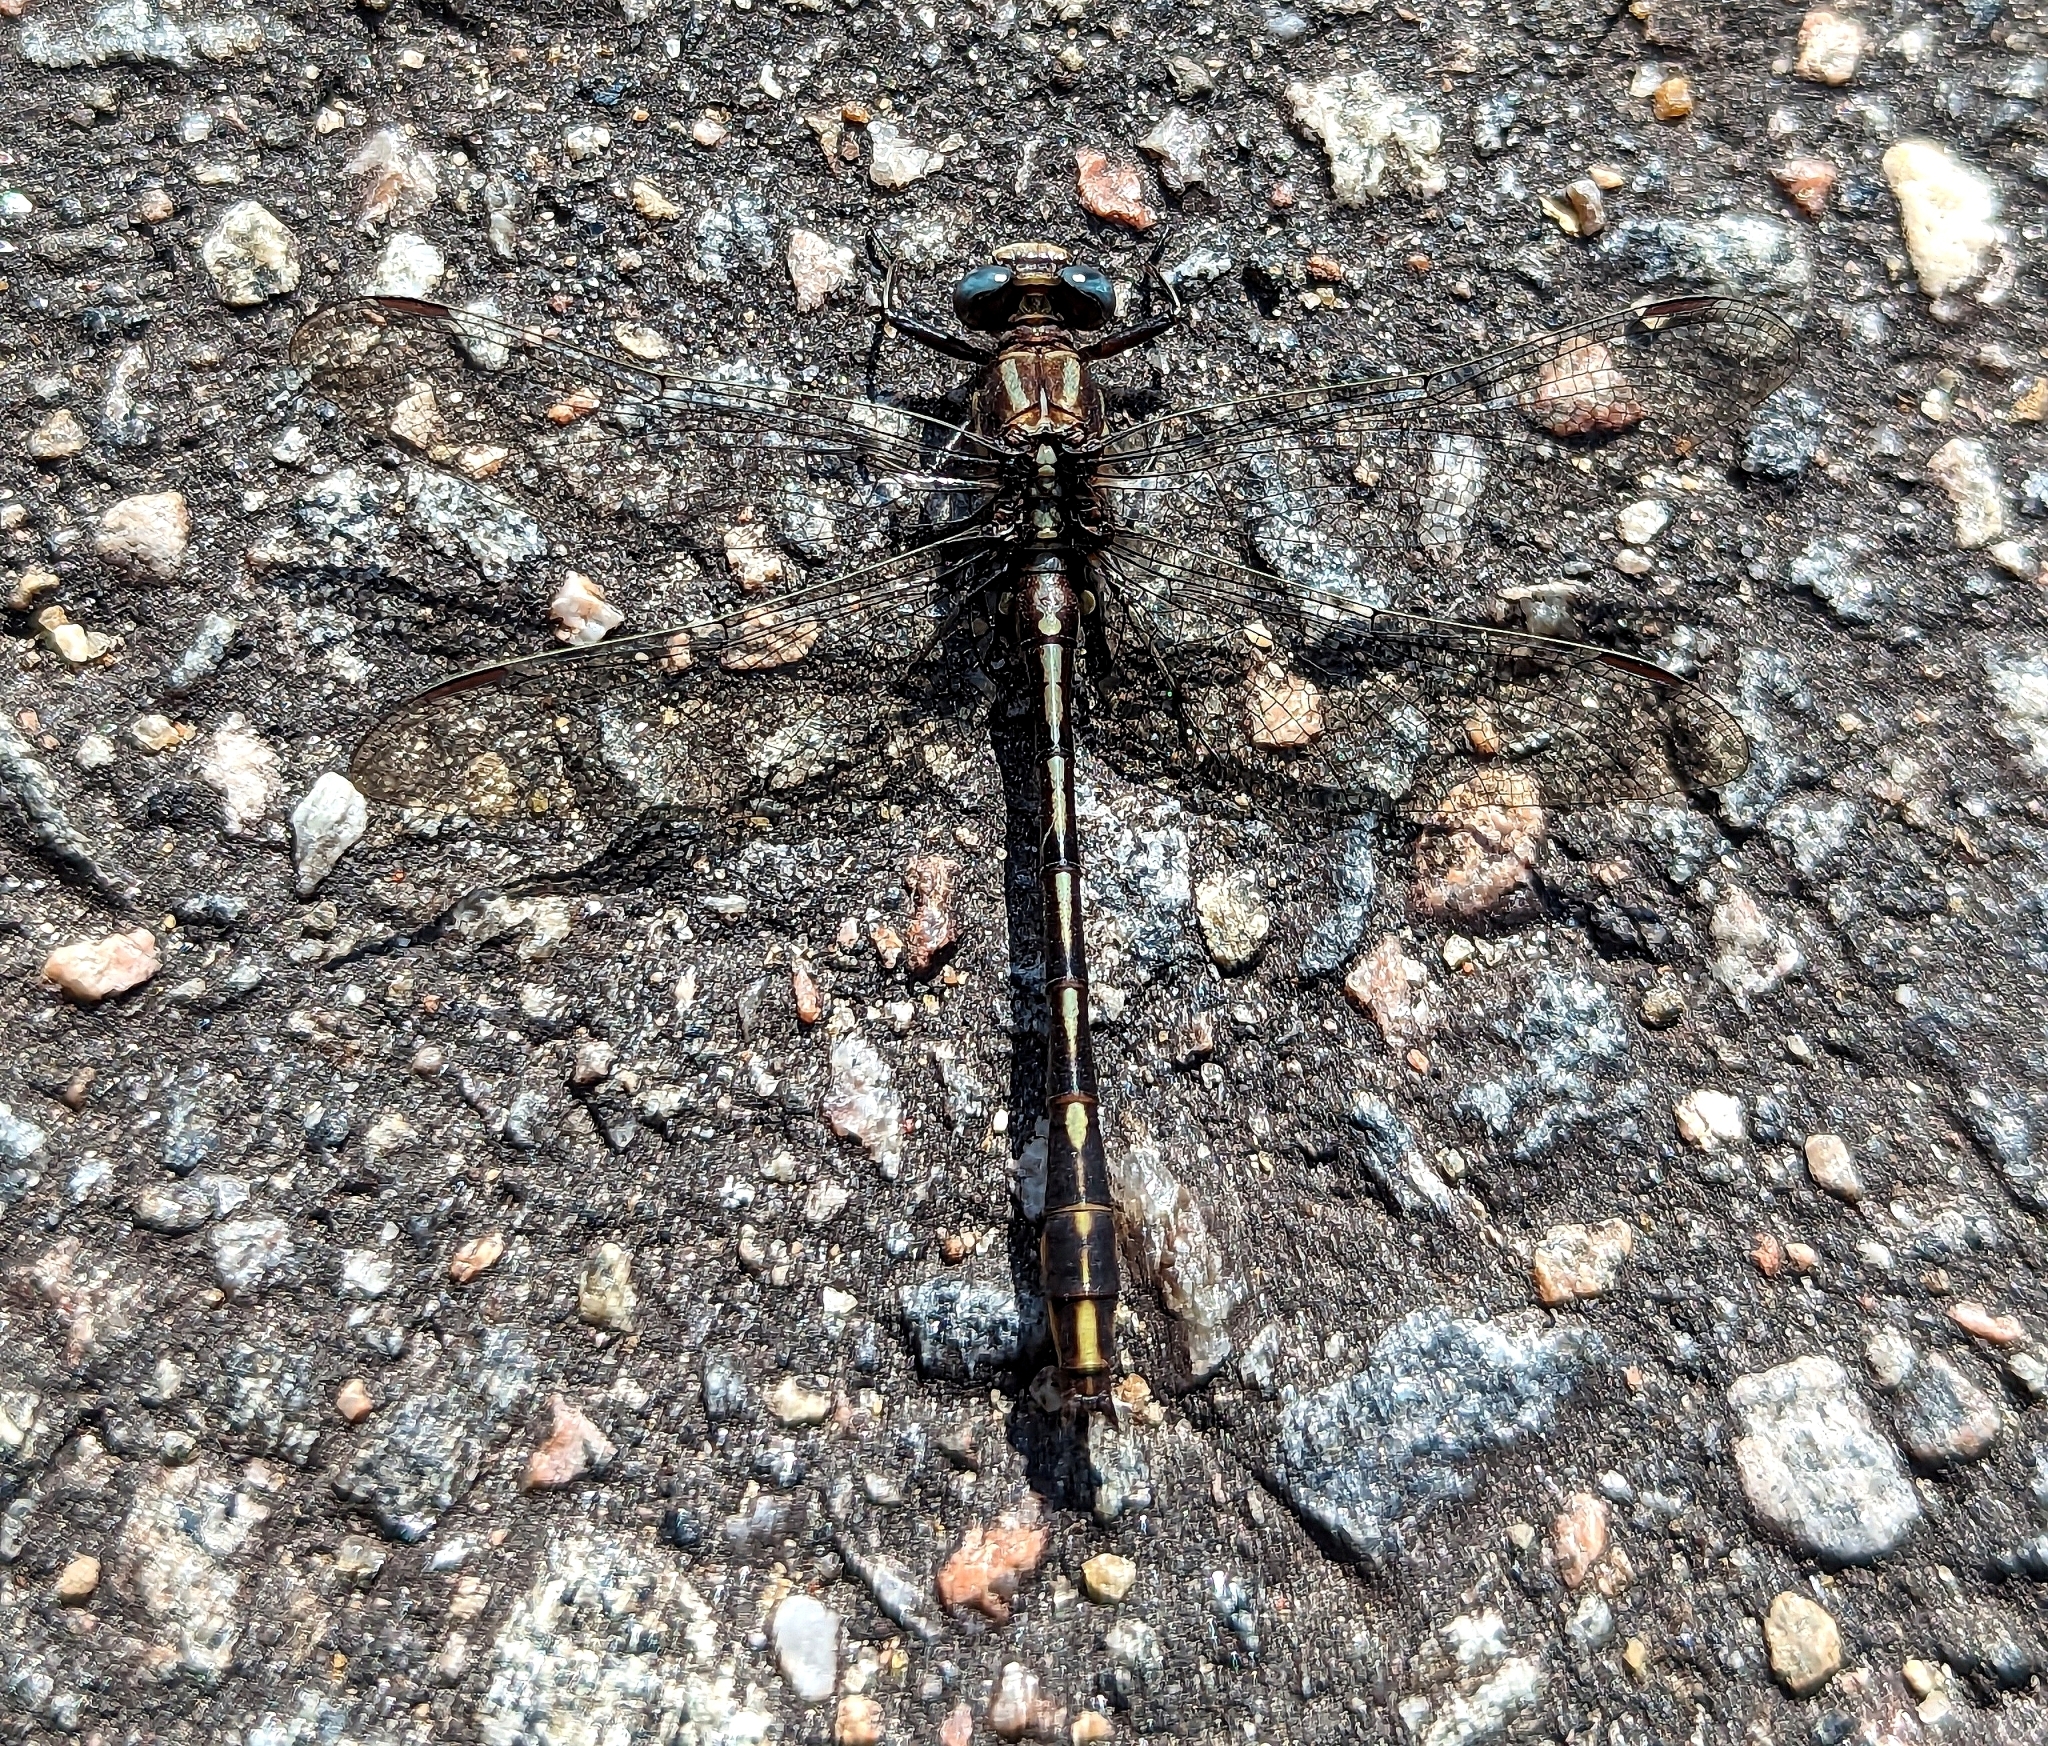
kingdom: Animalia
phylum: Arthropoda
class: Insecta
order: Odonata
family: Gomphidae
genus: Phanogomphus
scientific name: Phanogomphus exilis
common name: Lancet clubtail
